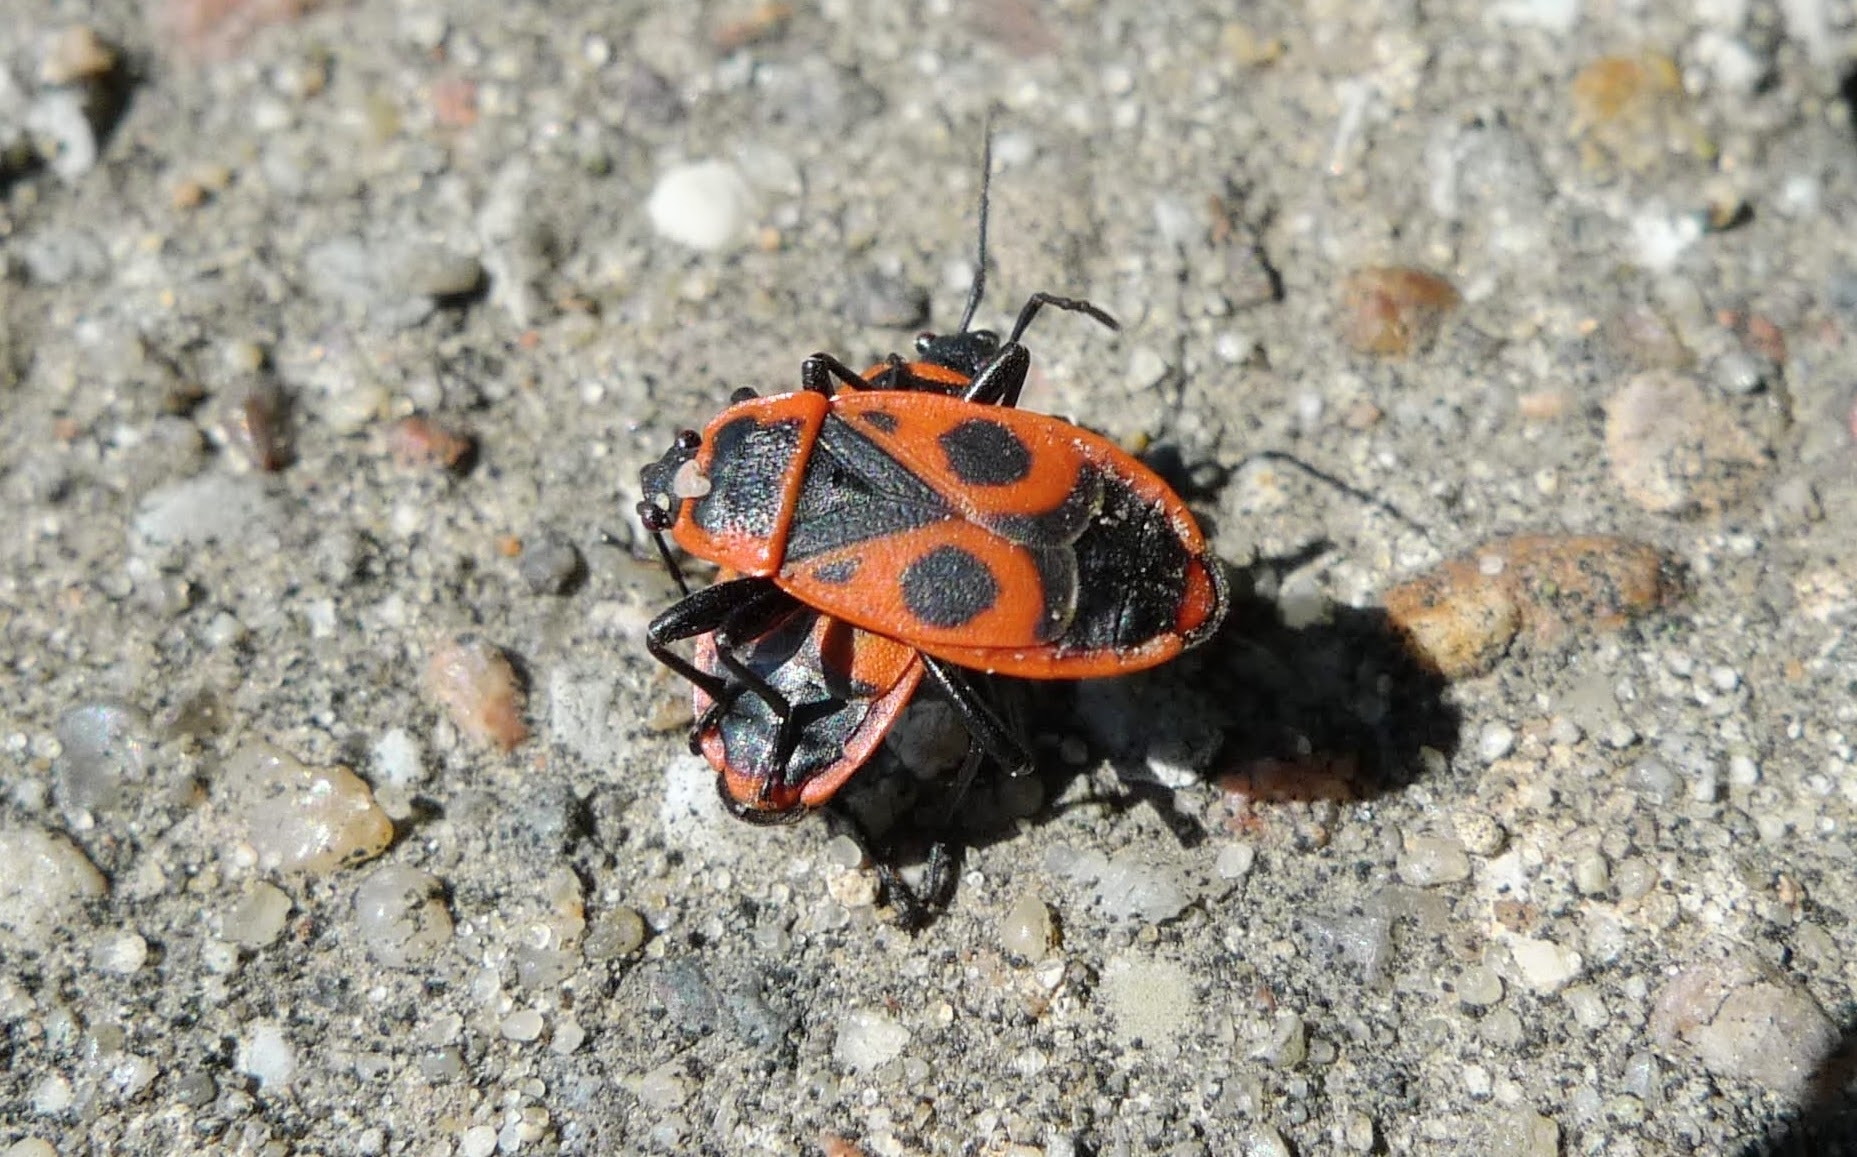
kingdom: Animalia
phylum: Arthropoda
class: Insecta
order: Hemiptera
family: Pyrrhocoridae
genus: Pyrrhocoris
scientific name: Pyrrhocoris apterus
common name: Firebug
